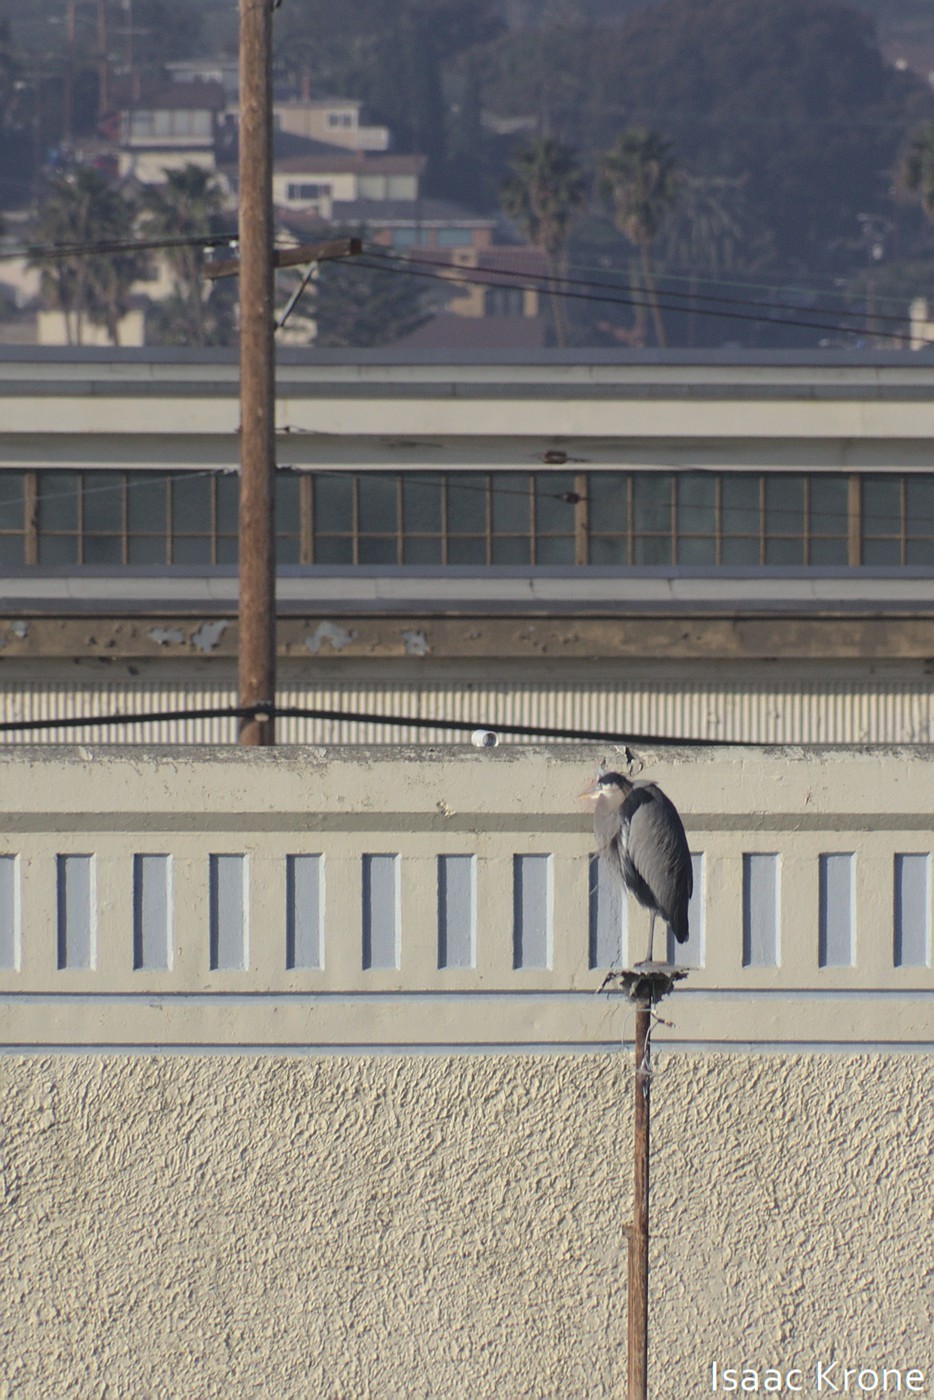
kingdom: Animalia
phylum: Chordata
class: Aves
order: Pelecaniformes
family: Ardeidae
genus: Ardea
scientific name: Ardea herodias
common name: Great blue heron
